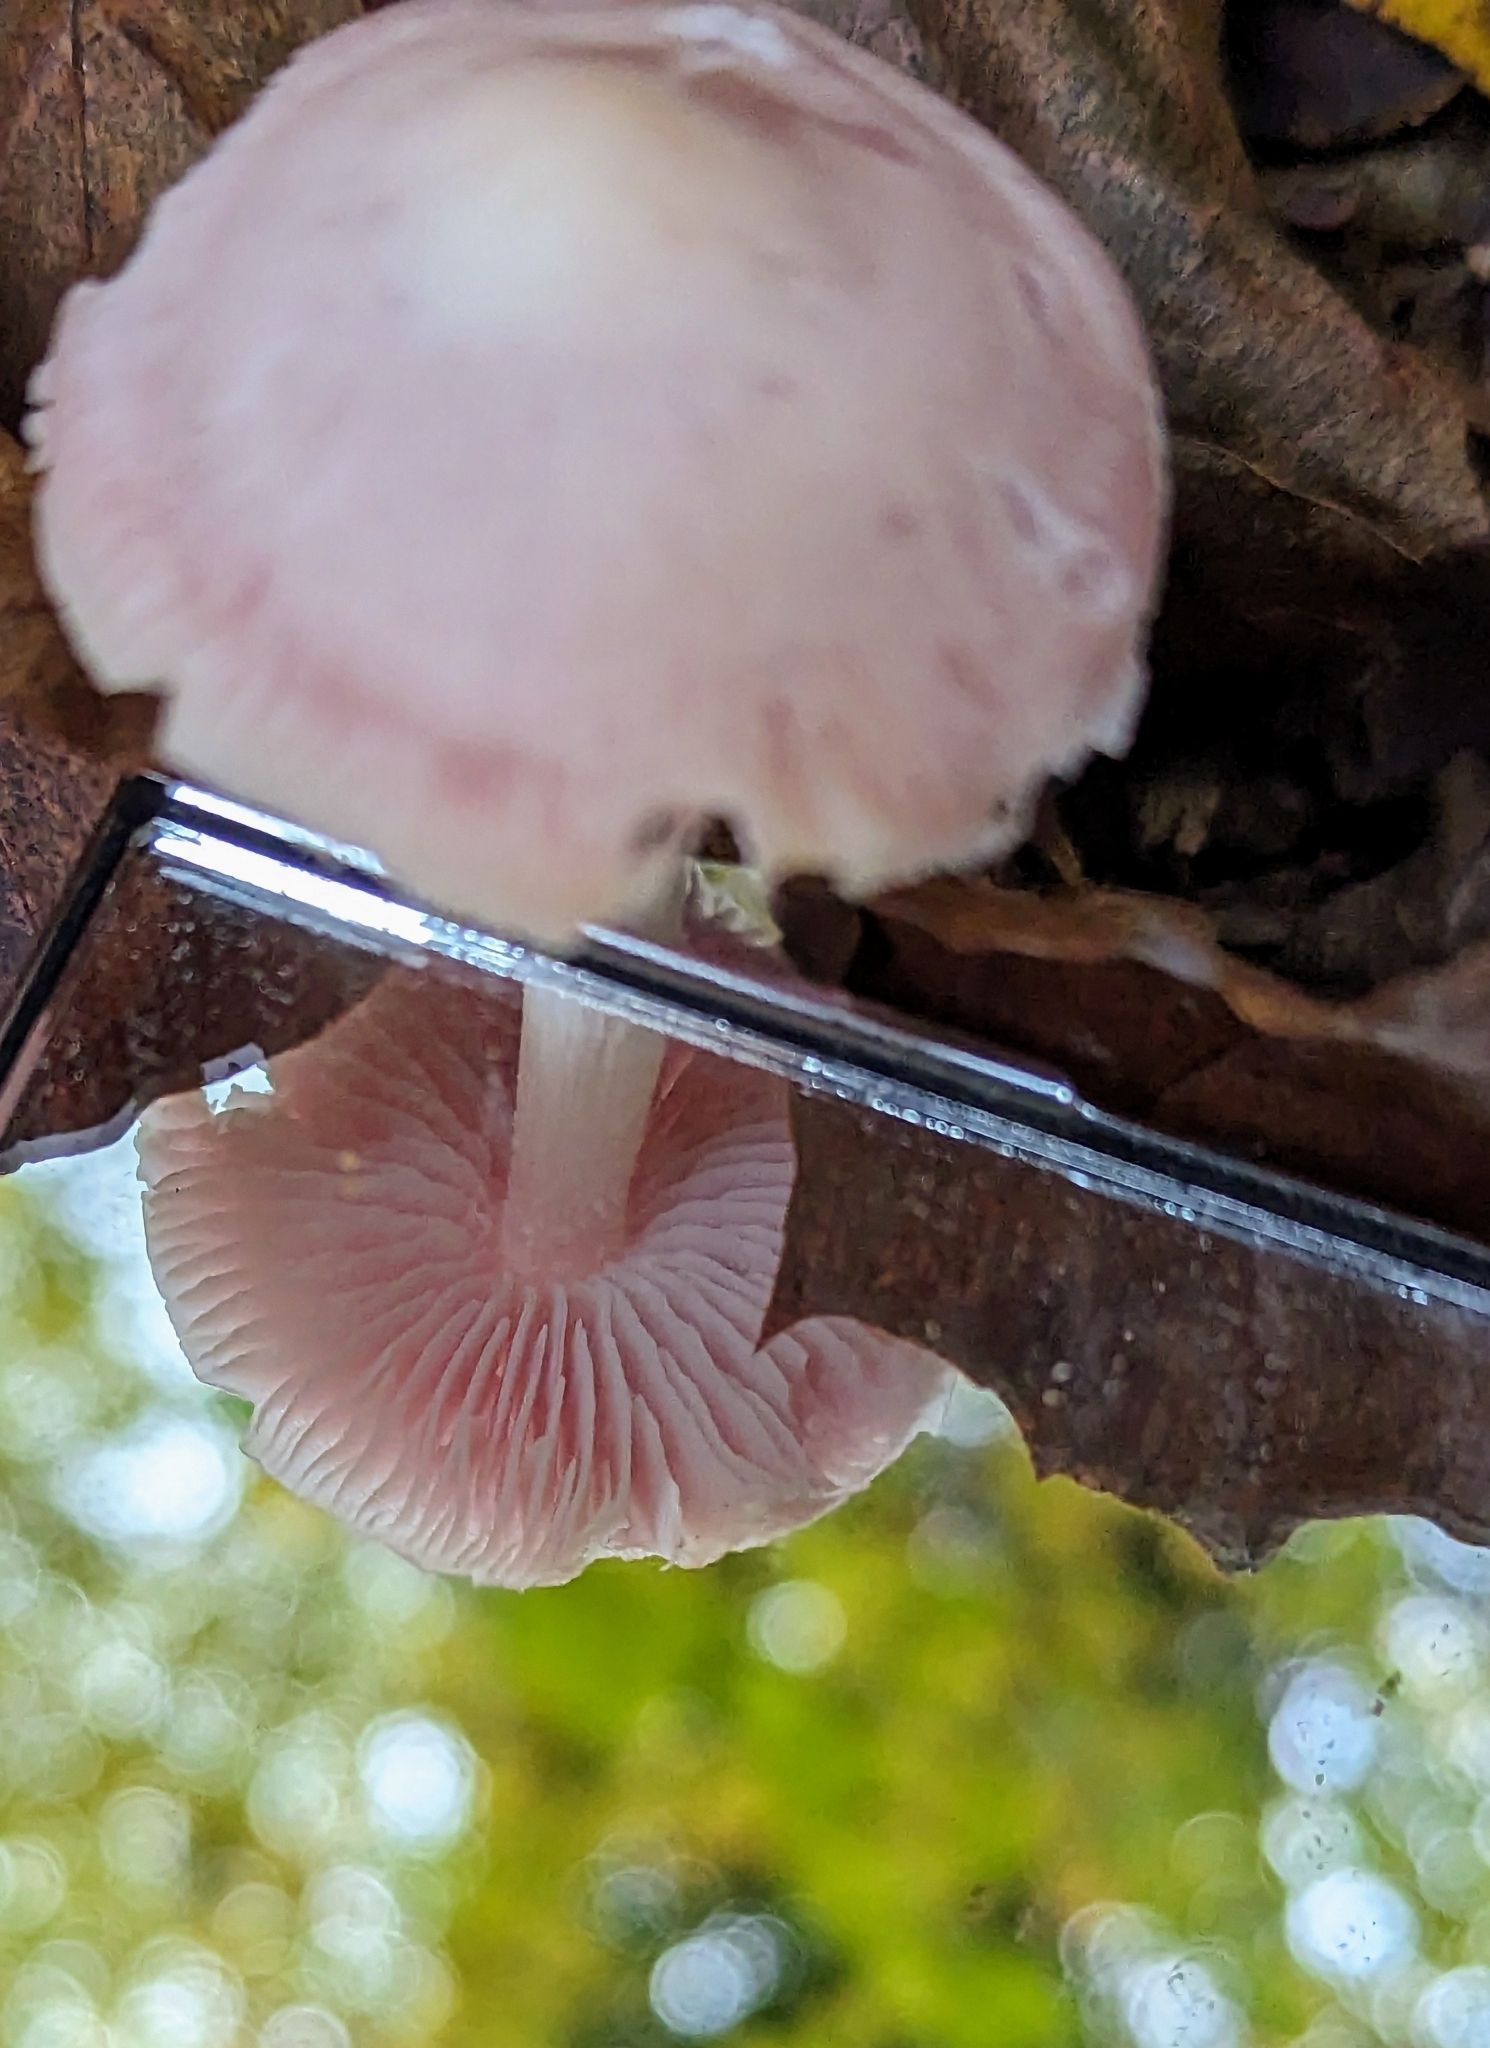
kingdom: Fungi
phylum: Basidiomycota
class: Agaricomycetes
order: Agaricales
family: Mycenaceae
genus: Mycena
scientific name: Mycena rosea
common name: Rosy bonnet
